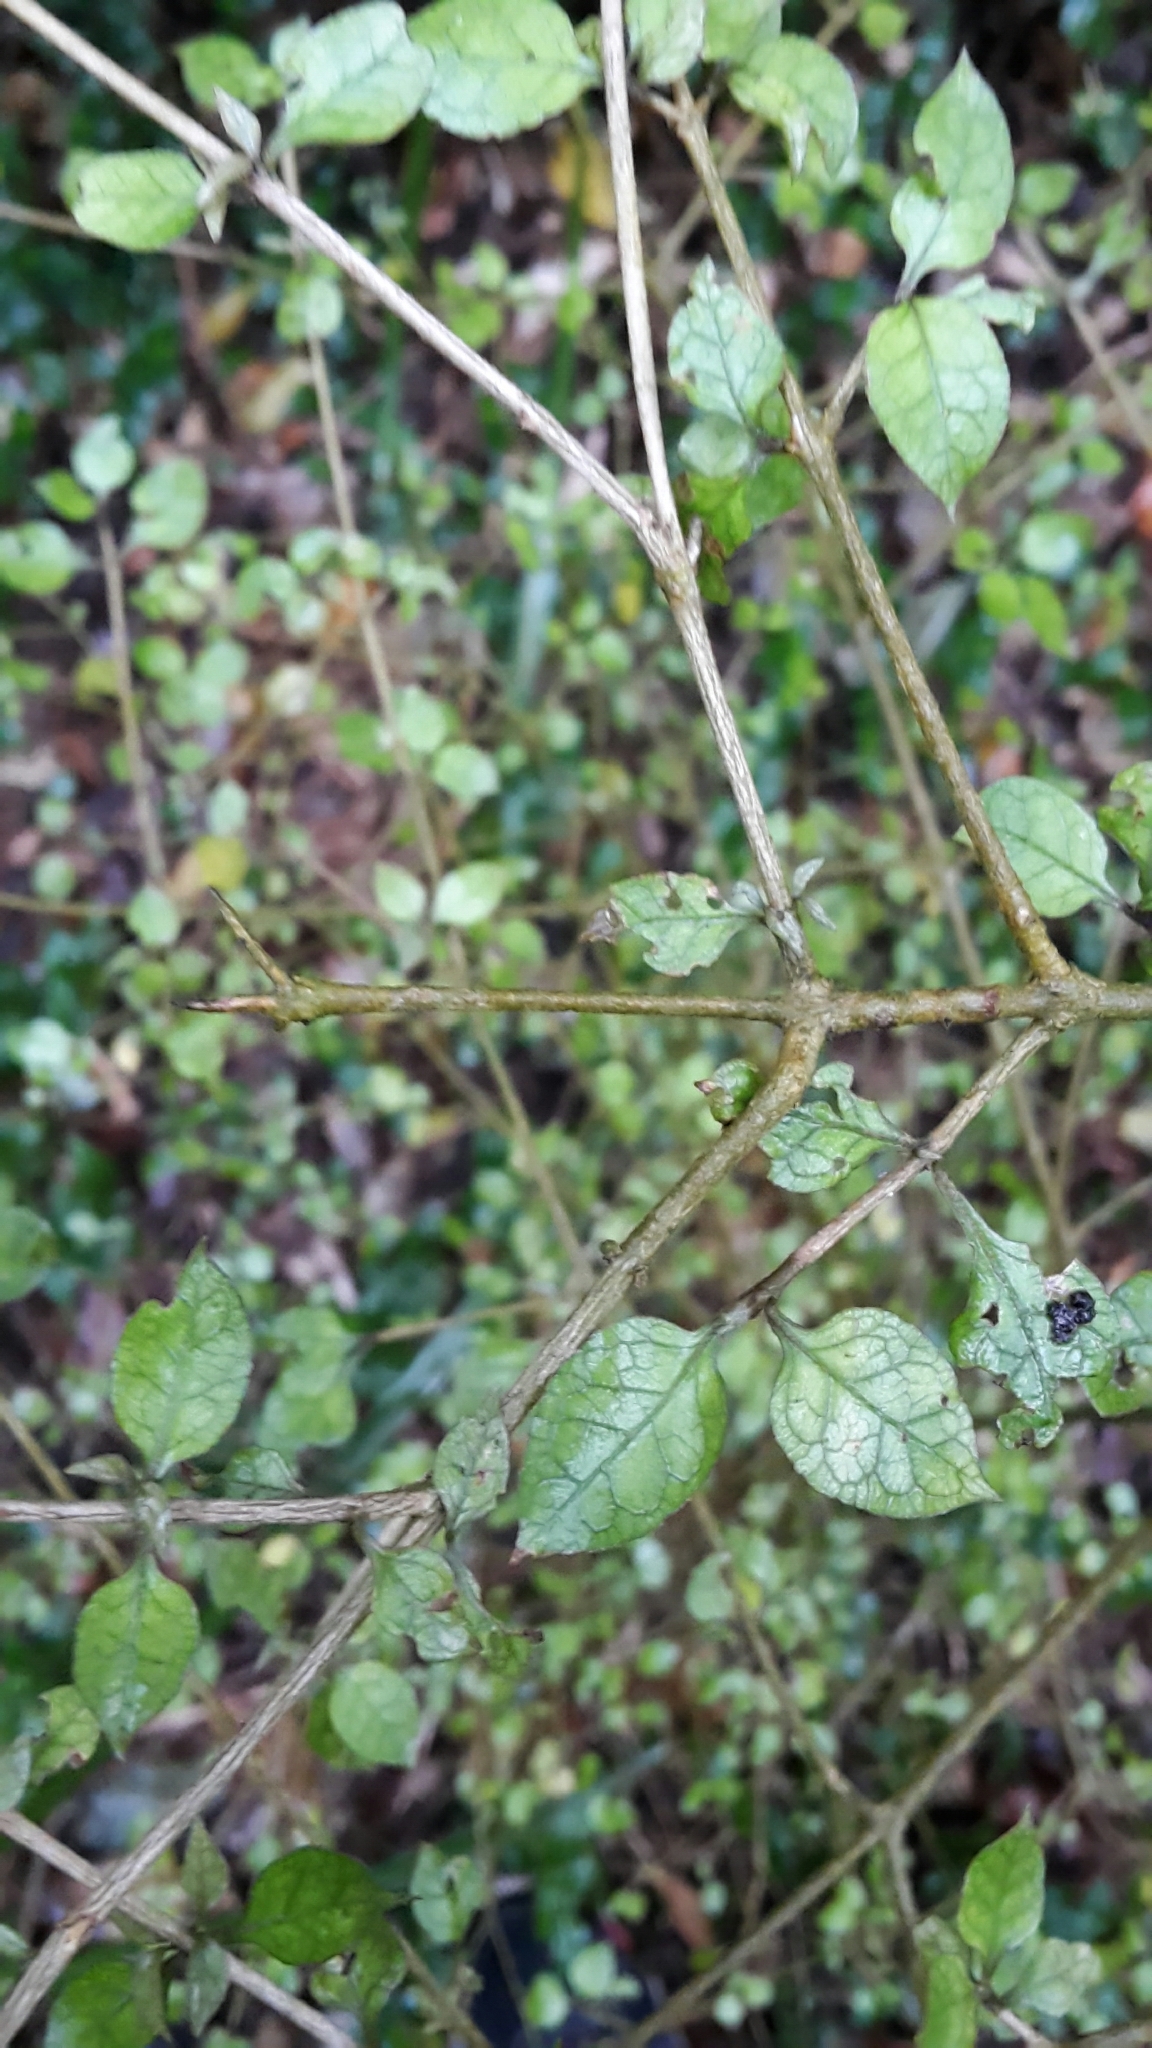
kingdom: Plantae
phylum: Tracheophyta
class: Magnoliopsida
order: Gentianales
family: Rubiaceae
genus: Coprosma
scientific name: Coprosma areolata
